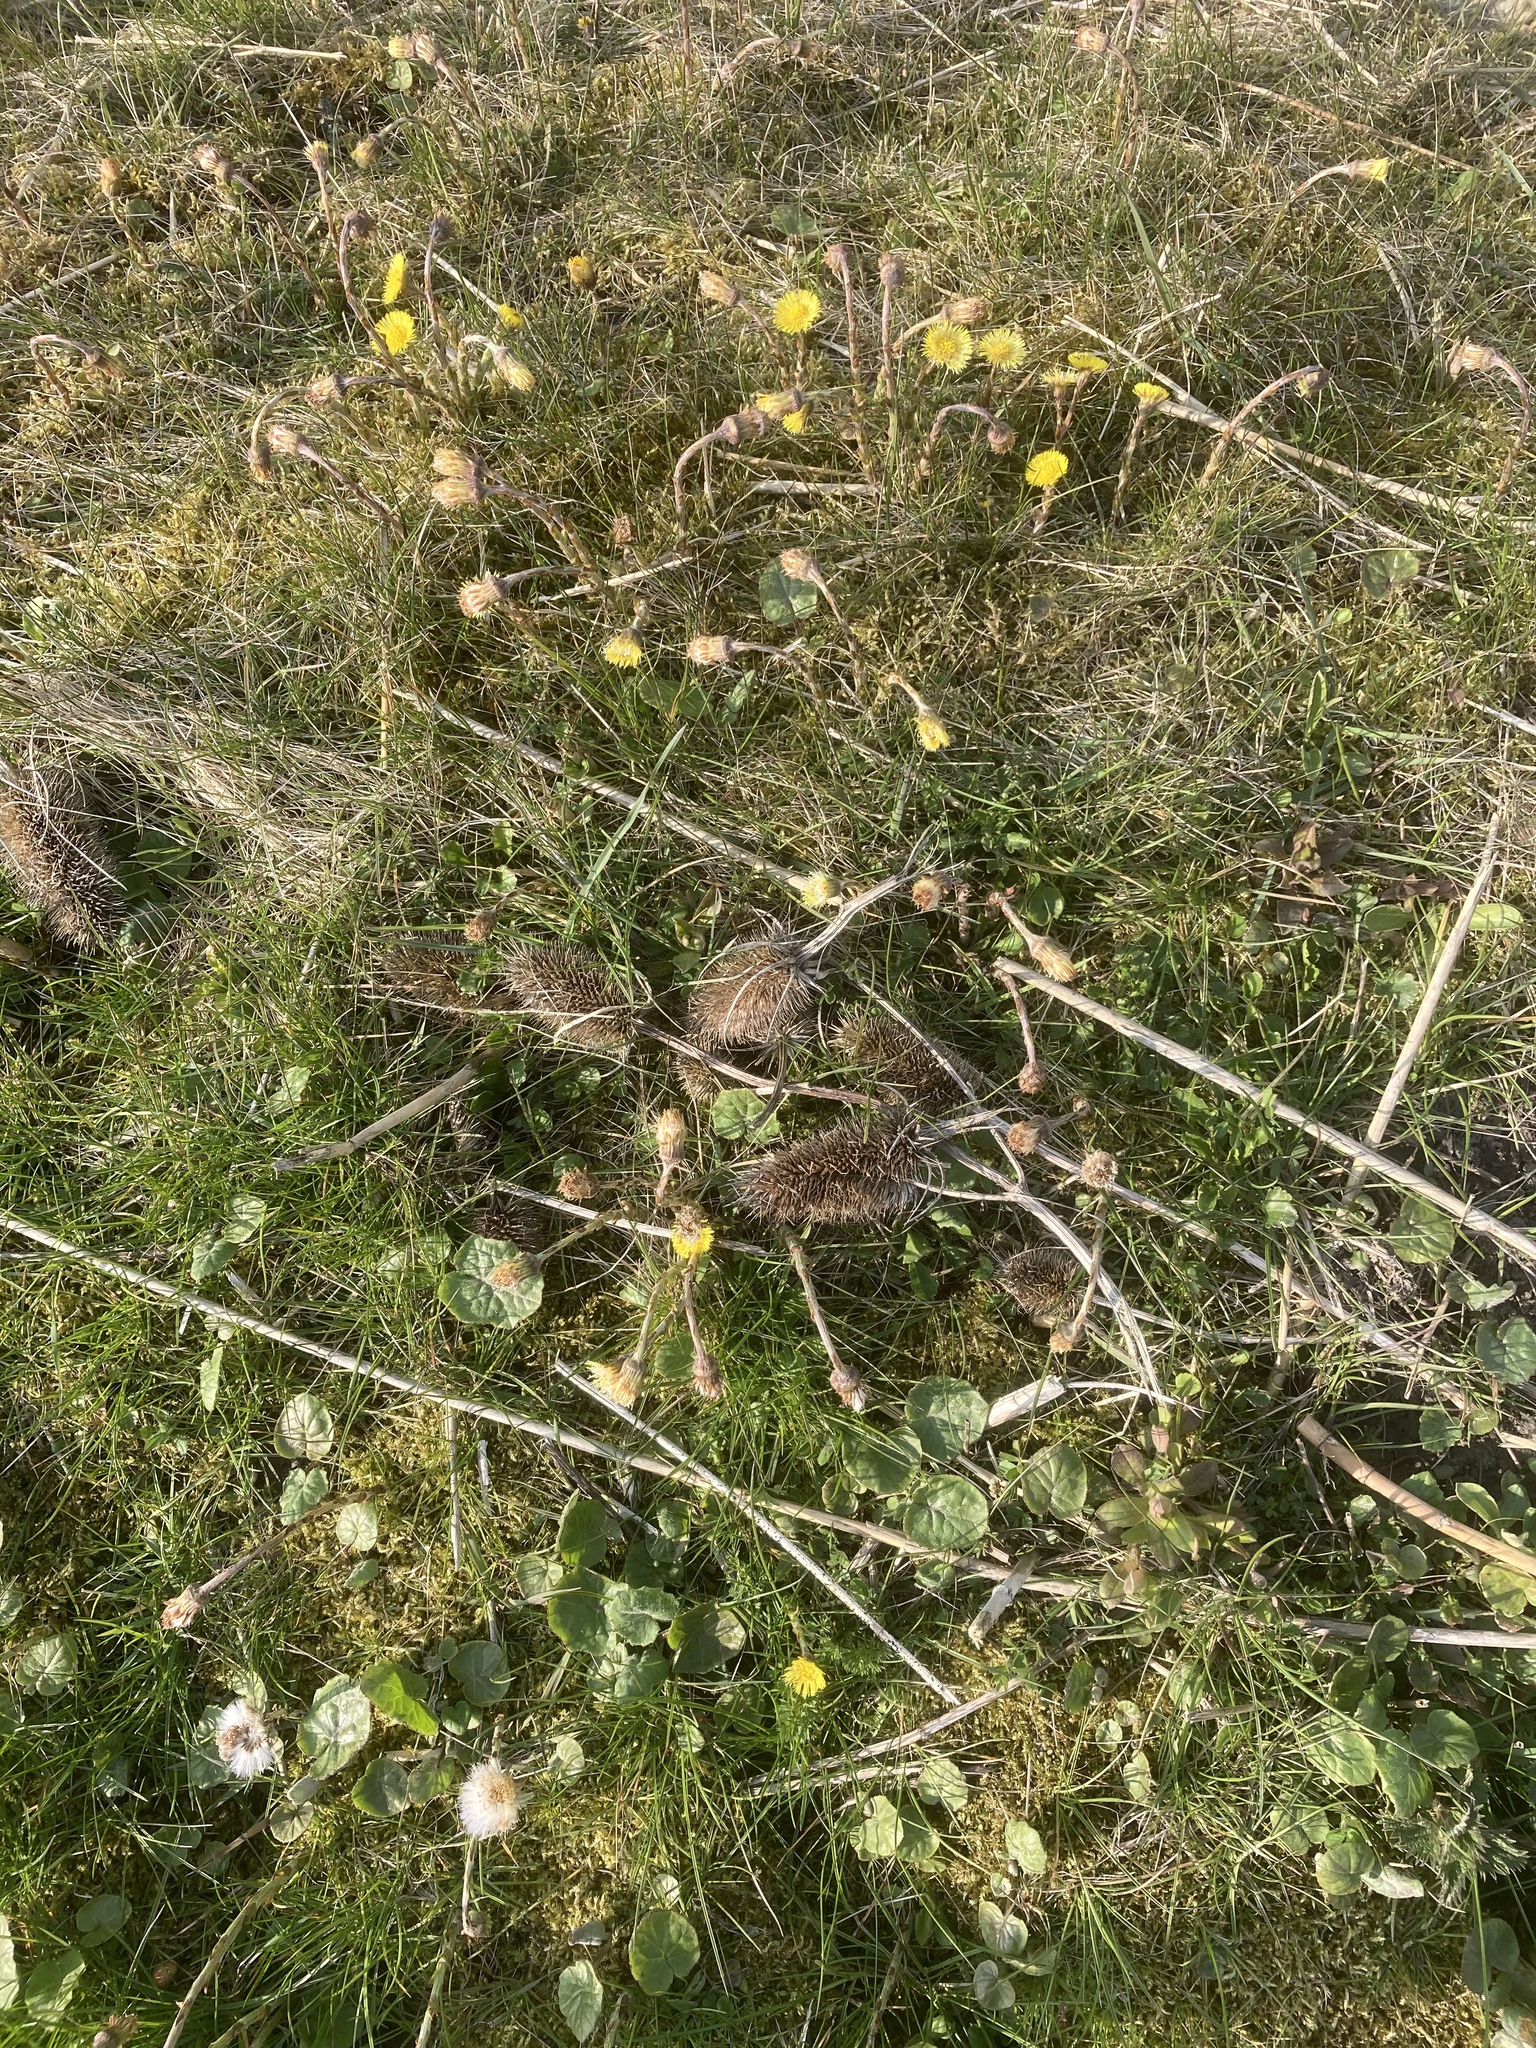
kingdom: Plantae
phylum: Tracheophyta
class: Magnoliopsida
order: Asterales
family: Asteraceae
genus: Tussilago
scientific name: Tussilago farfara
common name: Coltsfoot
